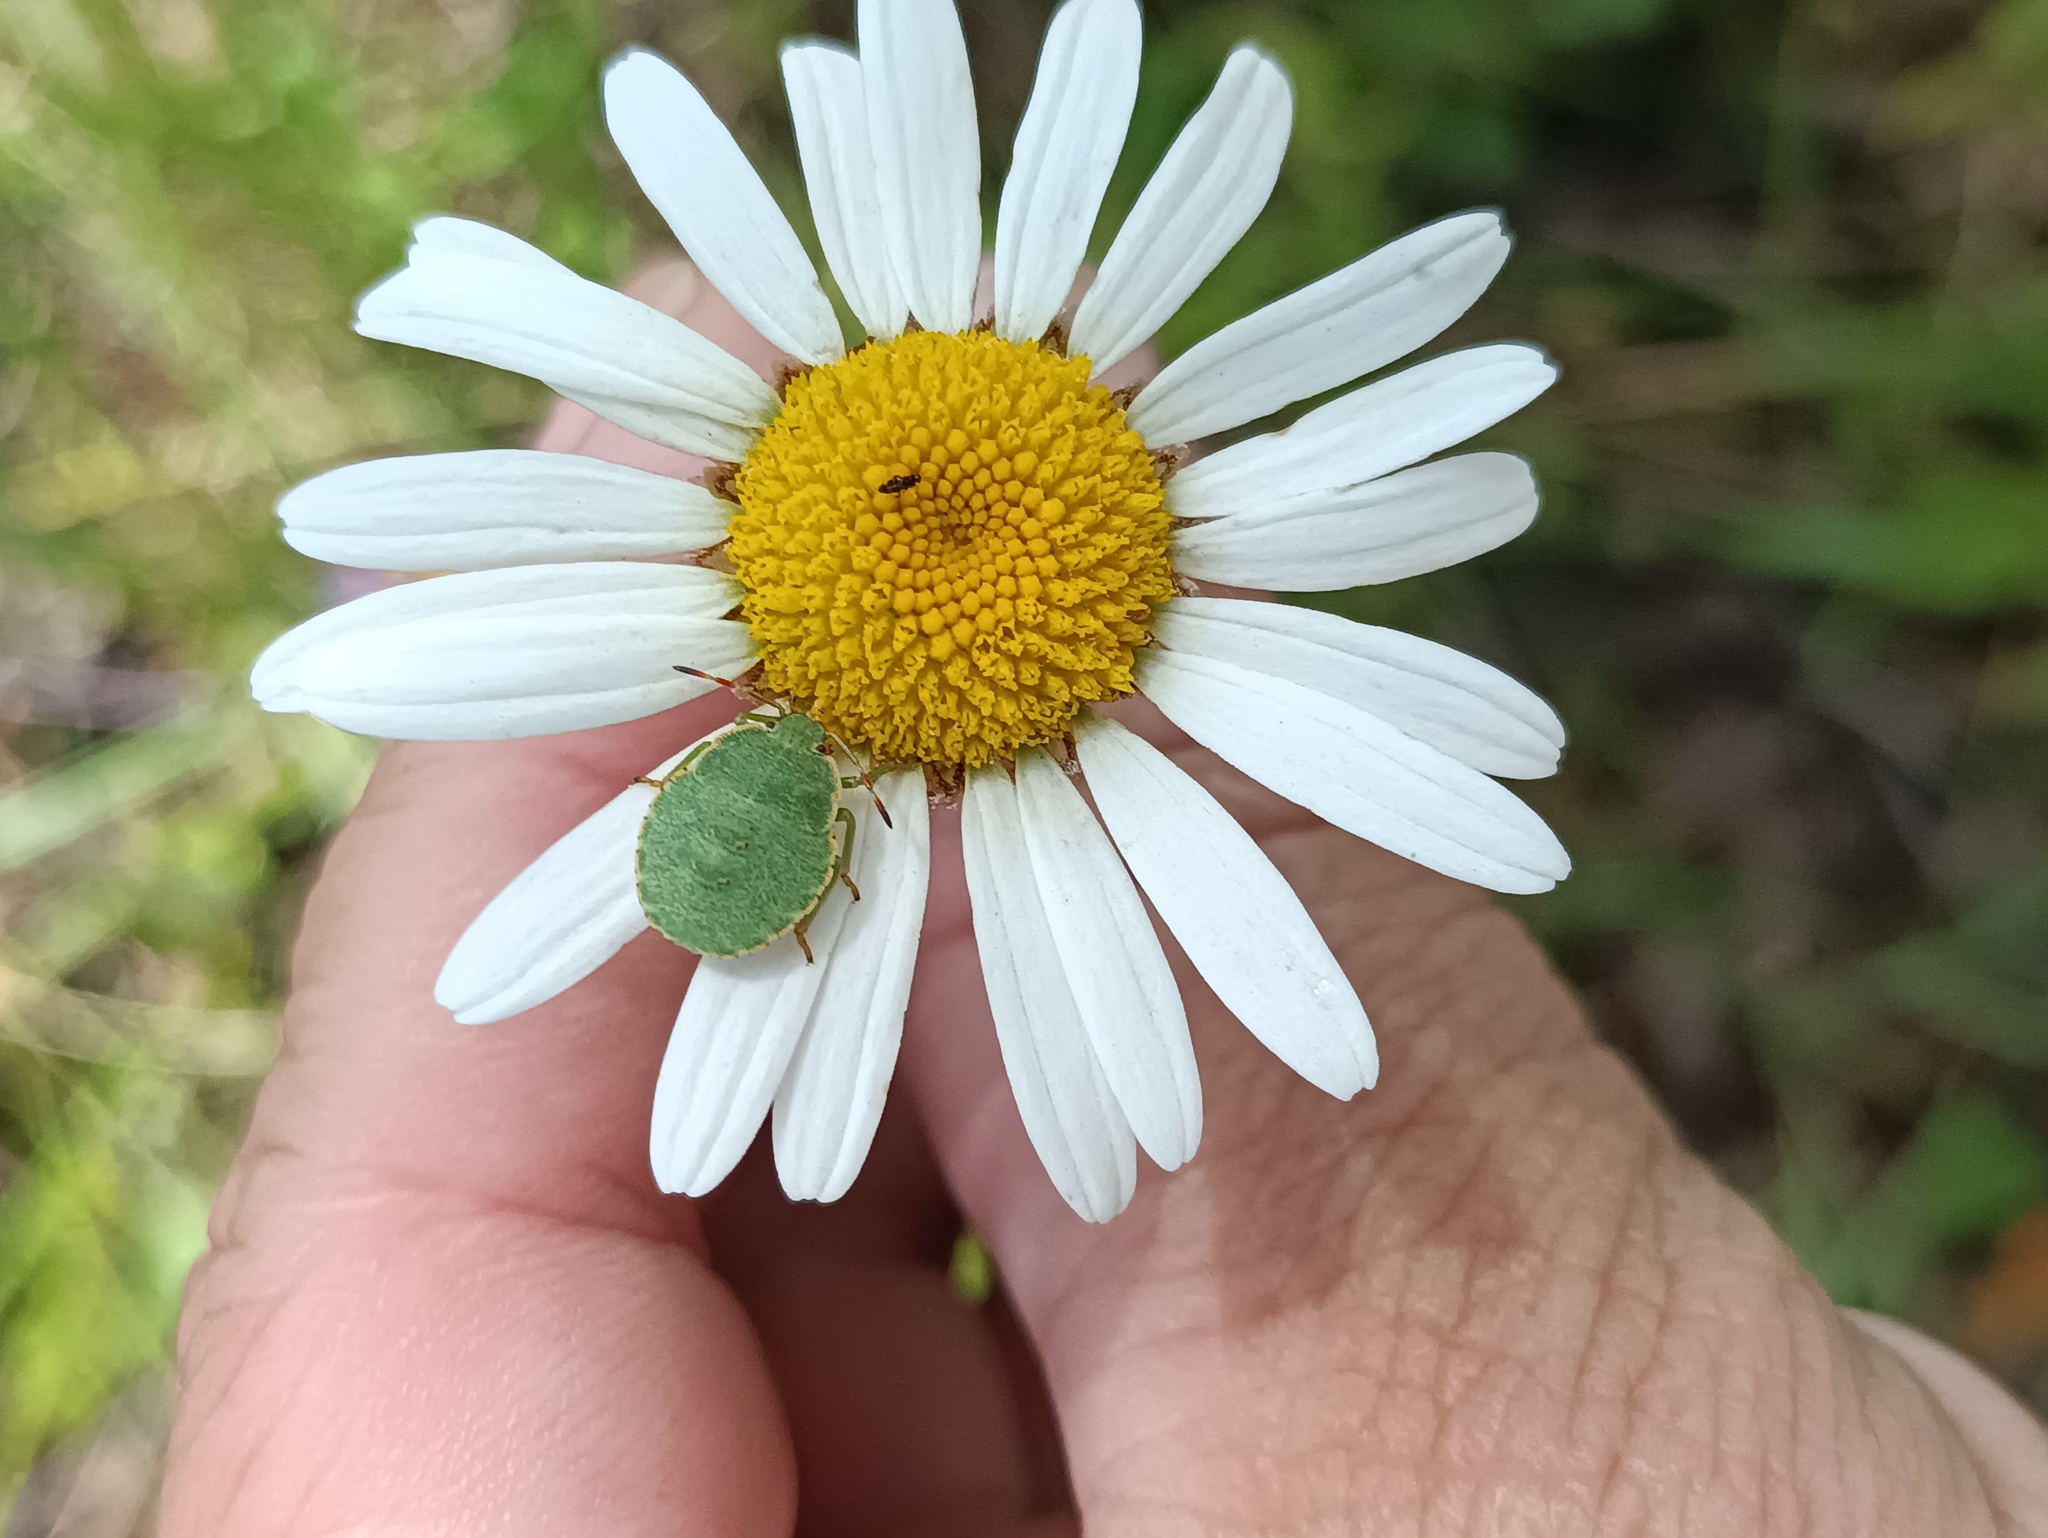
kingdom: Animalia
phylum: Arthropoda
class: Insecta
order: Hemiptera
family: Pentatomidae
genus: Palomena
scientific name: Palomena prasina
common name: Green shieldbug
